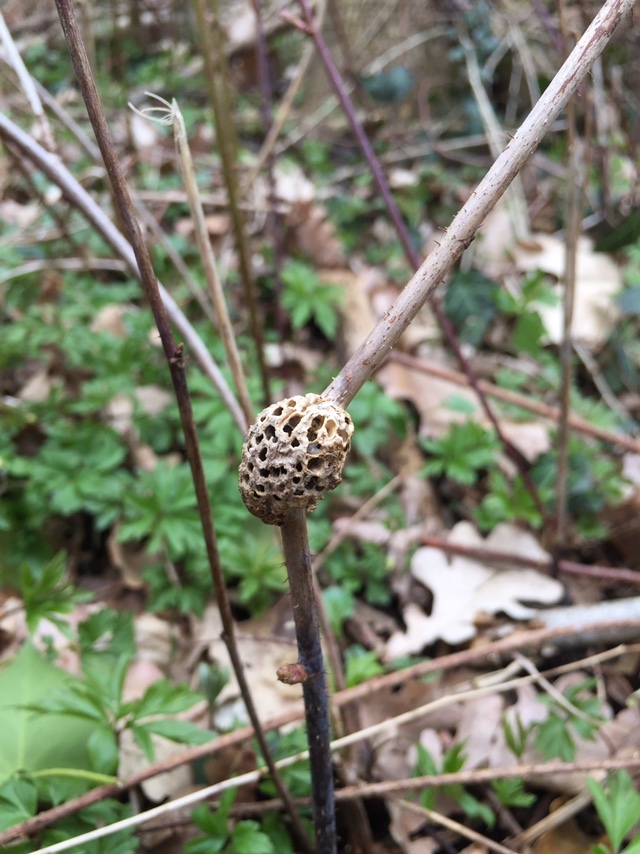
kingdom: Animalia
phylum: Arthropoda
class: Insecta
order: Hymenoptera
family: Cynipidae
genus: Diastrophus
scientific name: Diastrophus rubi
